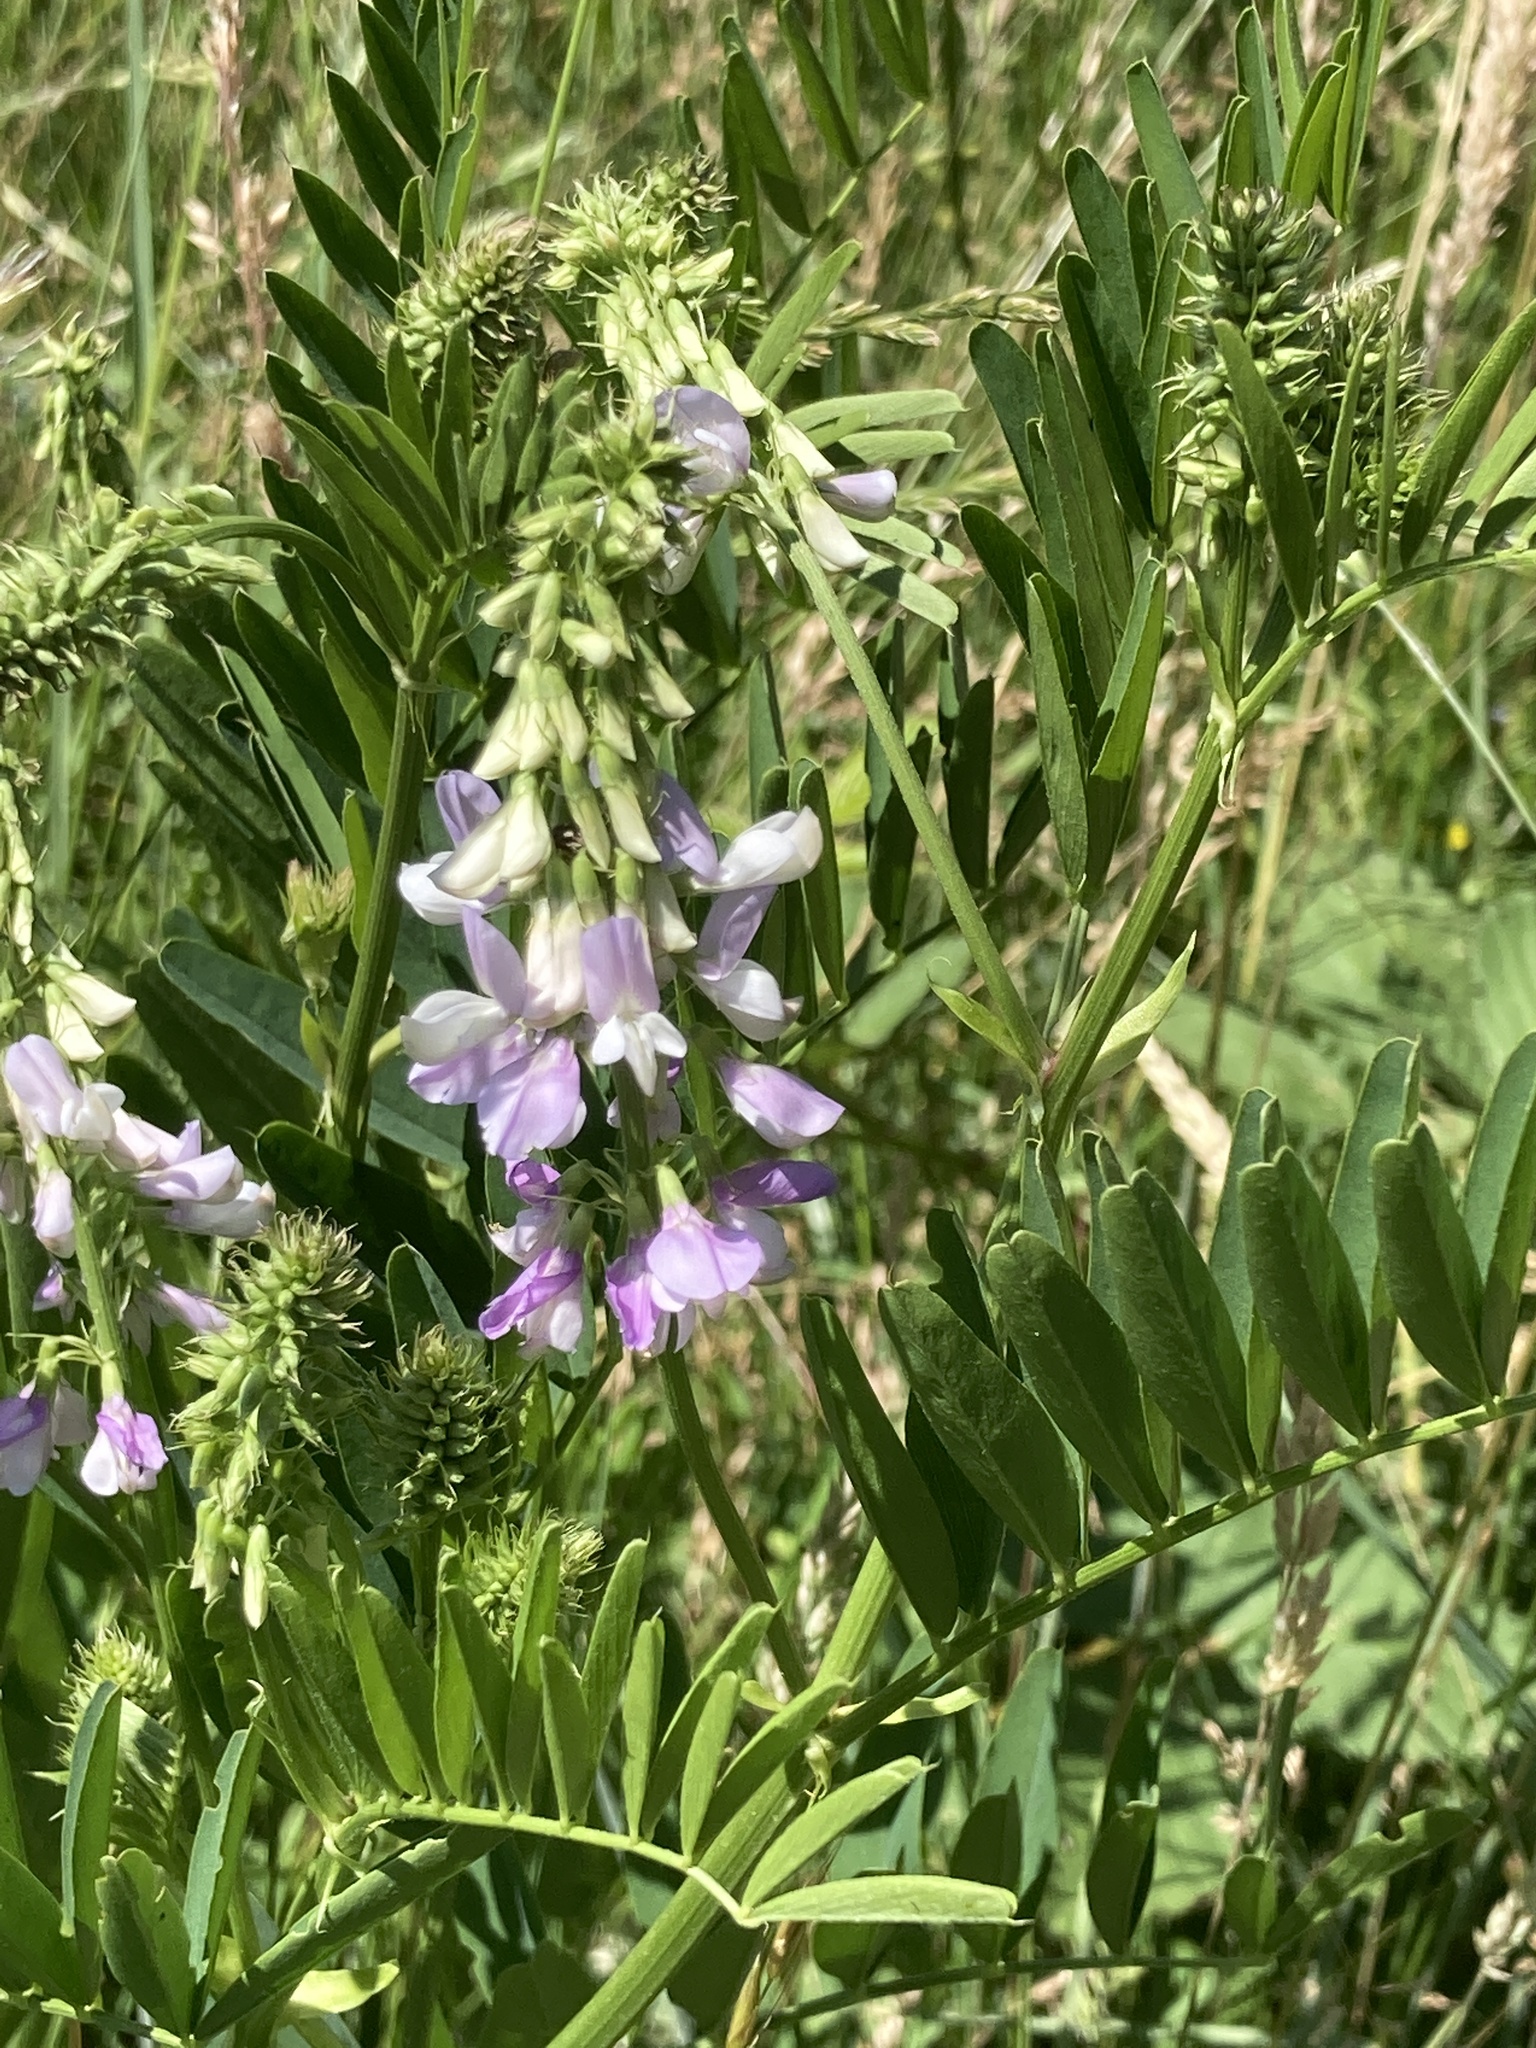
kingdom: Plantae
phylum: Tracheophyta
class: Magnoliopsida
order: Fabales
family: Fabaceae
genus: Galega
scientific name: Galega officinalis
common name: Goat's-rue
